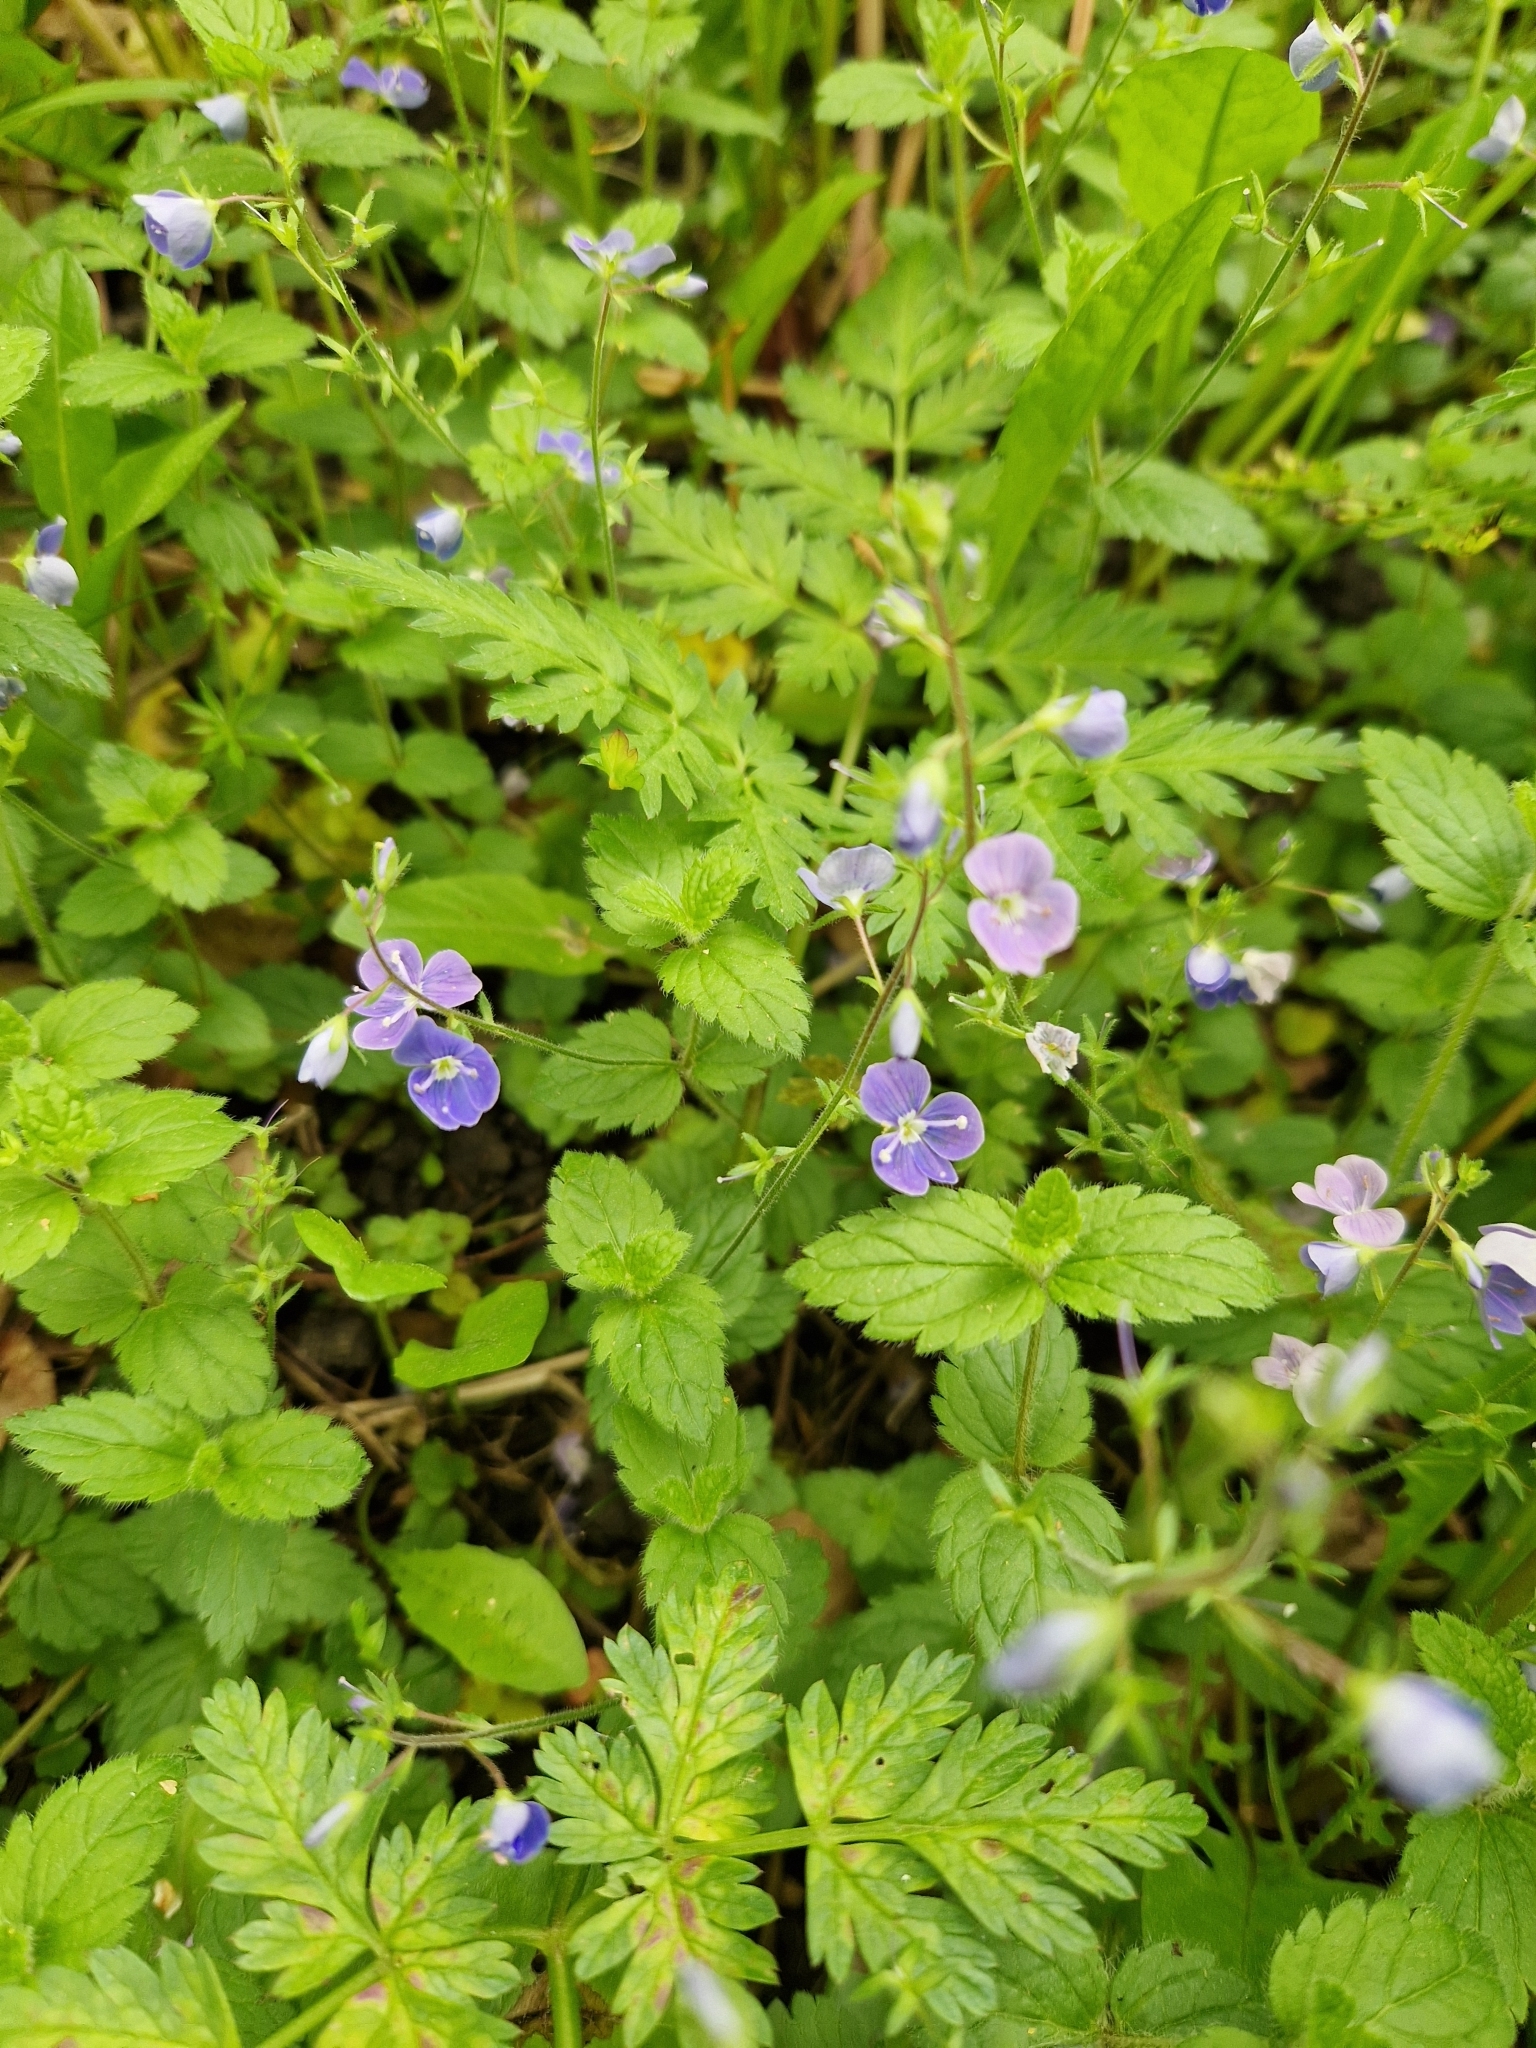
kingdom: Plantae
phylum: Tracheophyta
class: Magnoliopsida
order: Lamiales
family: Plantaginaceae
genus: Veronica
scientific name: Veronica chamaedrys
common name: Germander speedwell
